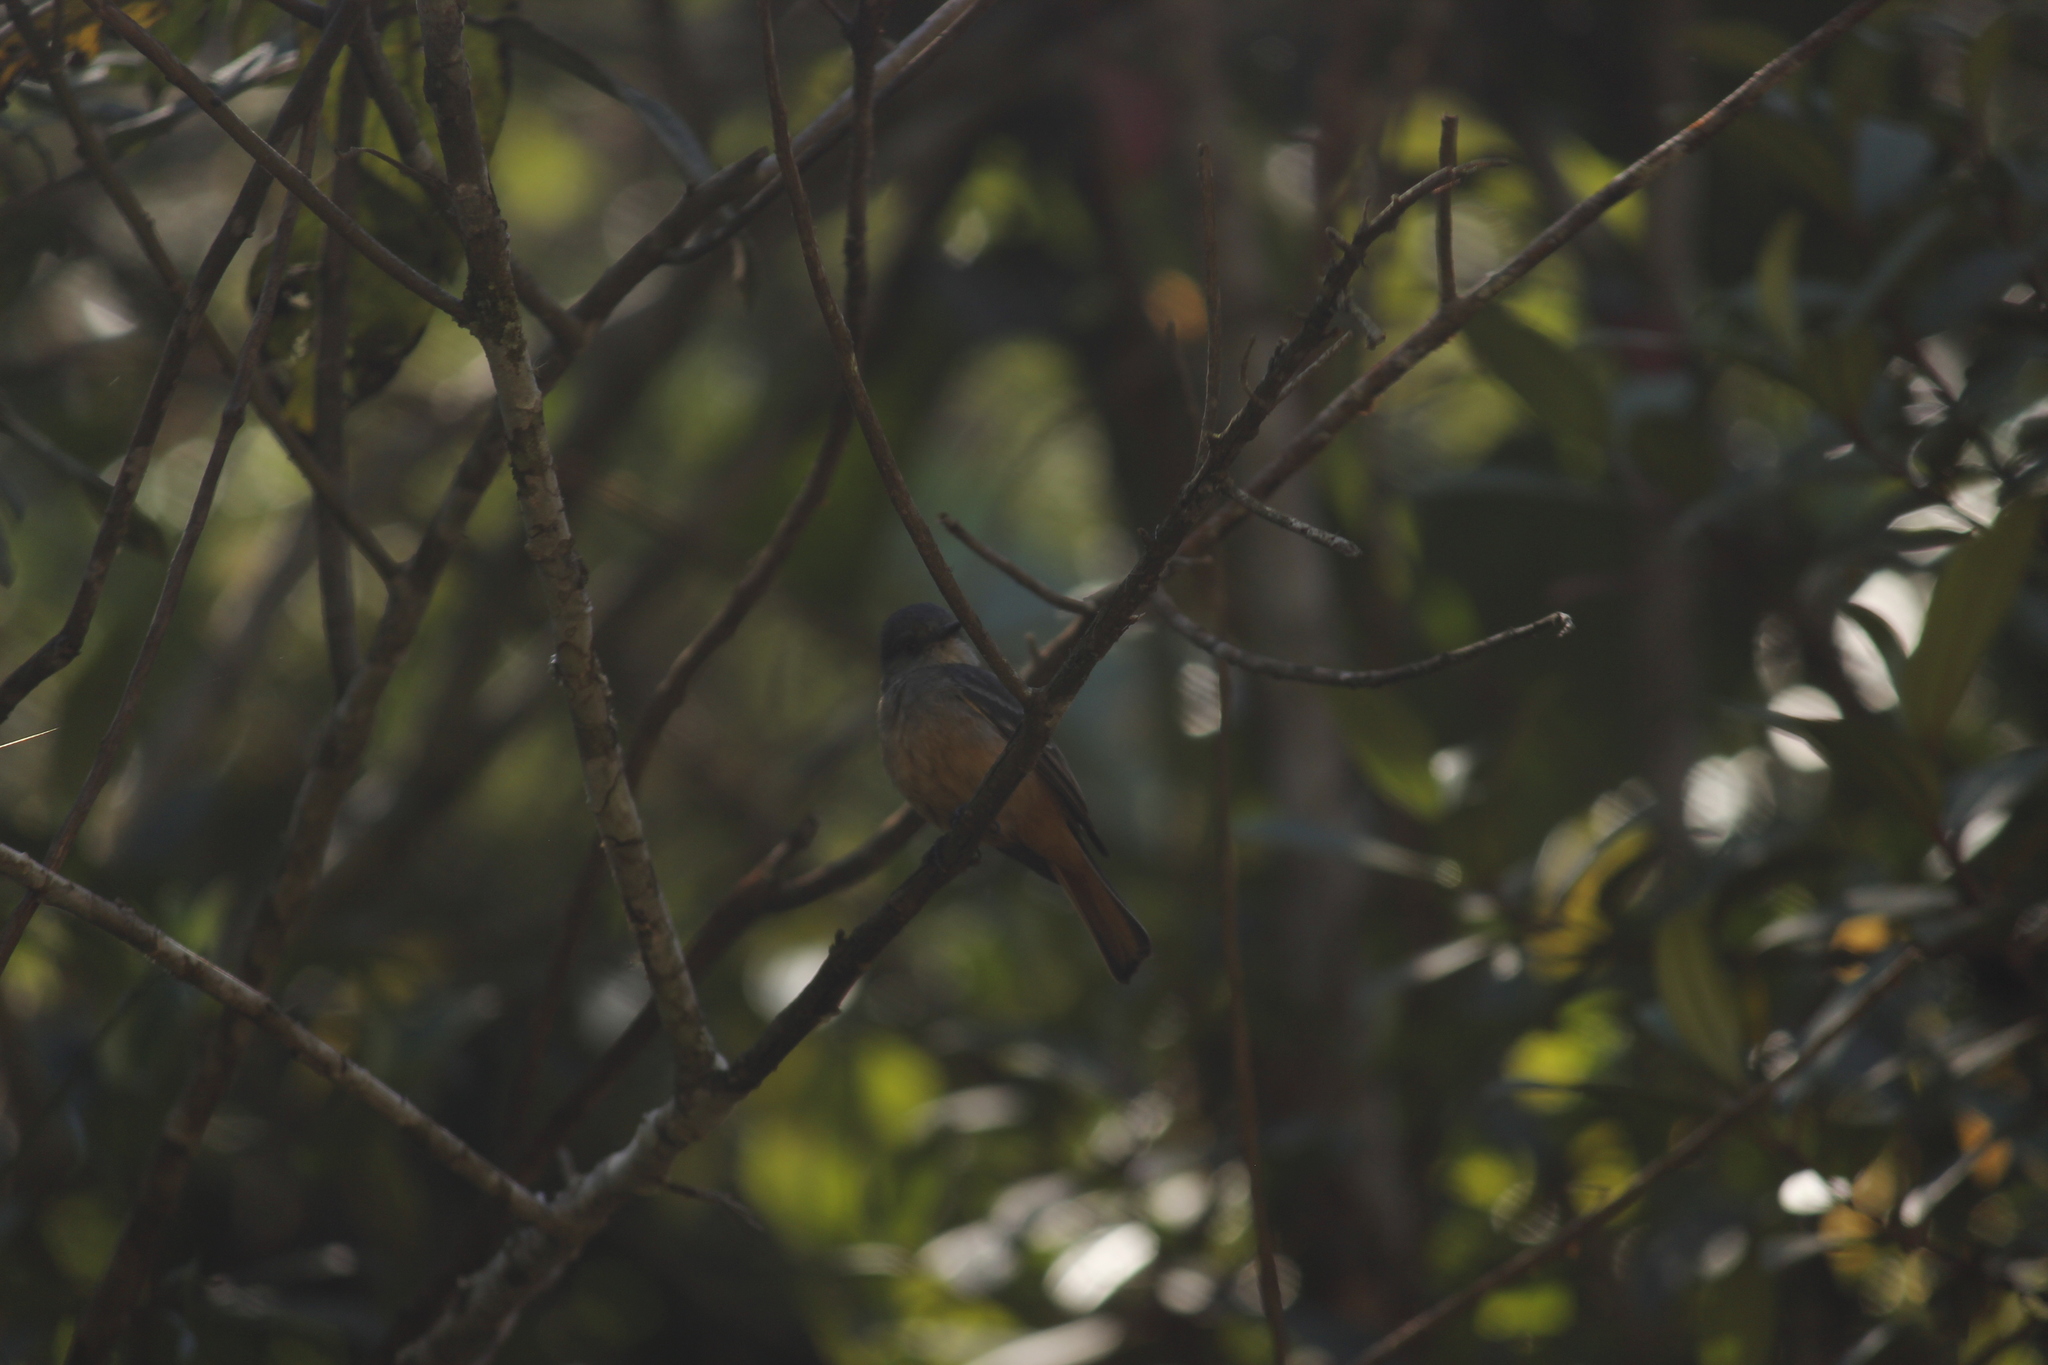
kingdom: Animalia
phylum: Chordata
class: Aves
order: Passeriformes
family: Tyrannidae
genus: Knipolegus
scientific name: Knipolegus poecilurus
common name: Rufous-tailed tyrant
